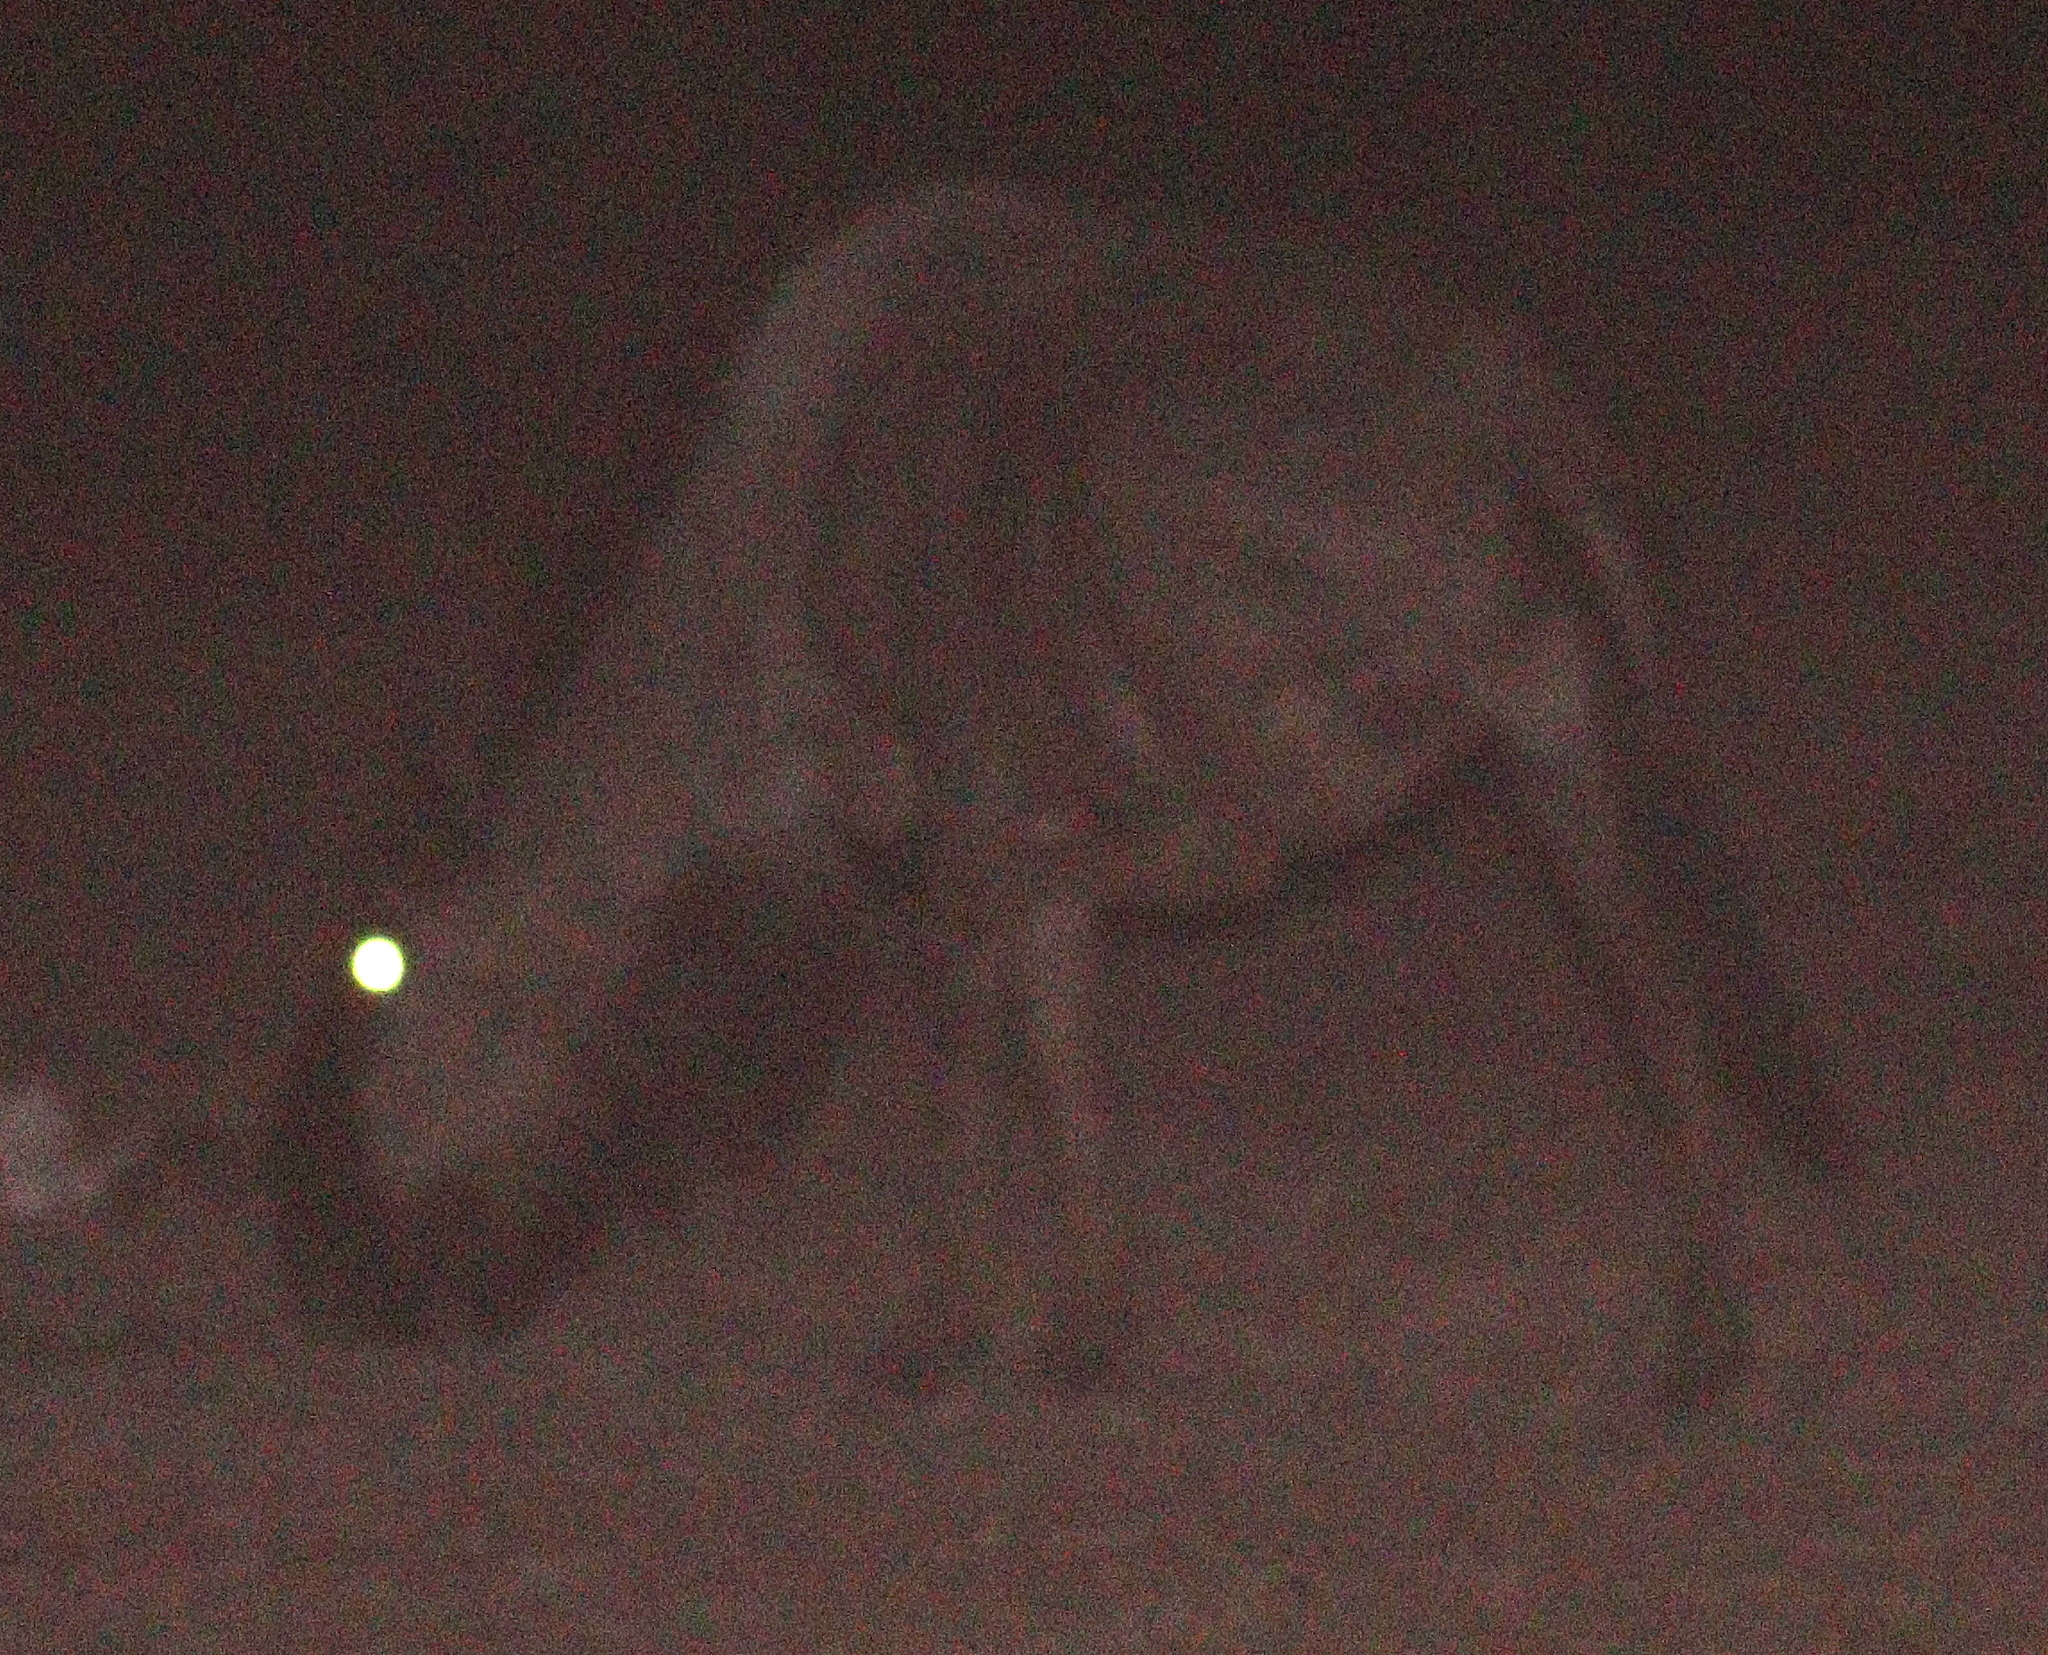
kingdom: Animalia
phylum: Chordata
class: Mammalia
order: Artiodactyla
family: Bovidae
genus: Connochaetes
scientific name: Connochaetes taurinus
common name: Blue wildebeest
